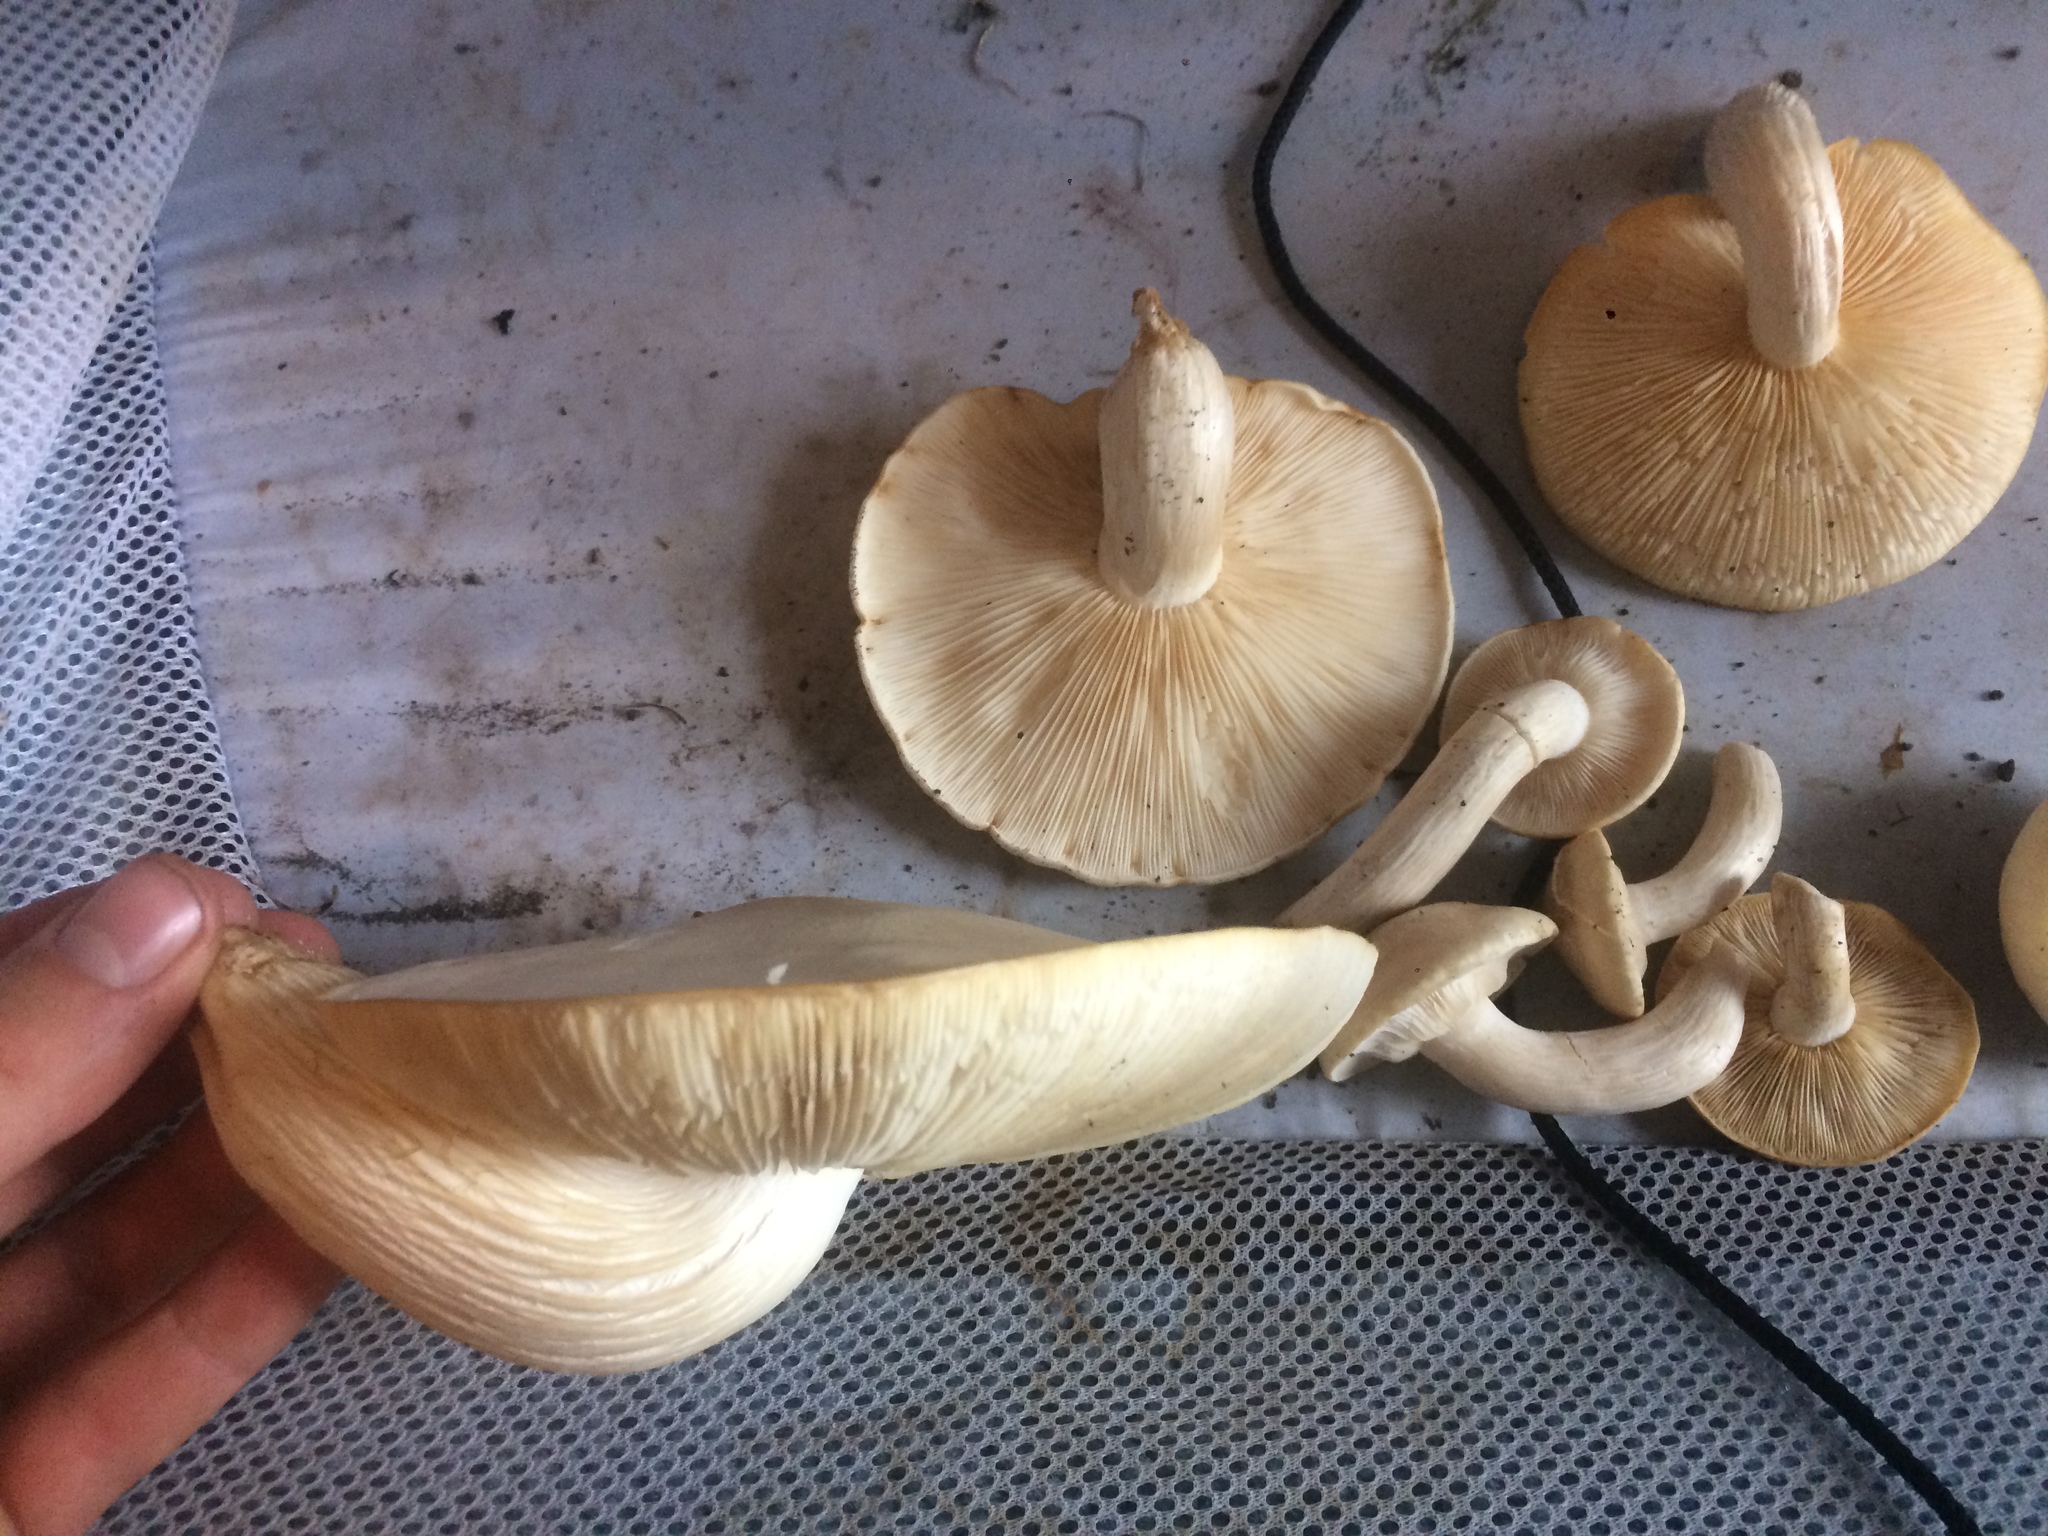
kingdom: Fungi
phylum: Basidiomycota
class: Agaricomycetes
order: Agaricales
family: Lyophyllaceae
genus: Hypsizygus
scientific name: Hypsizygus ulmarius
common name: Elm leech
